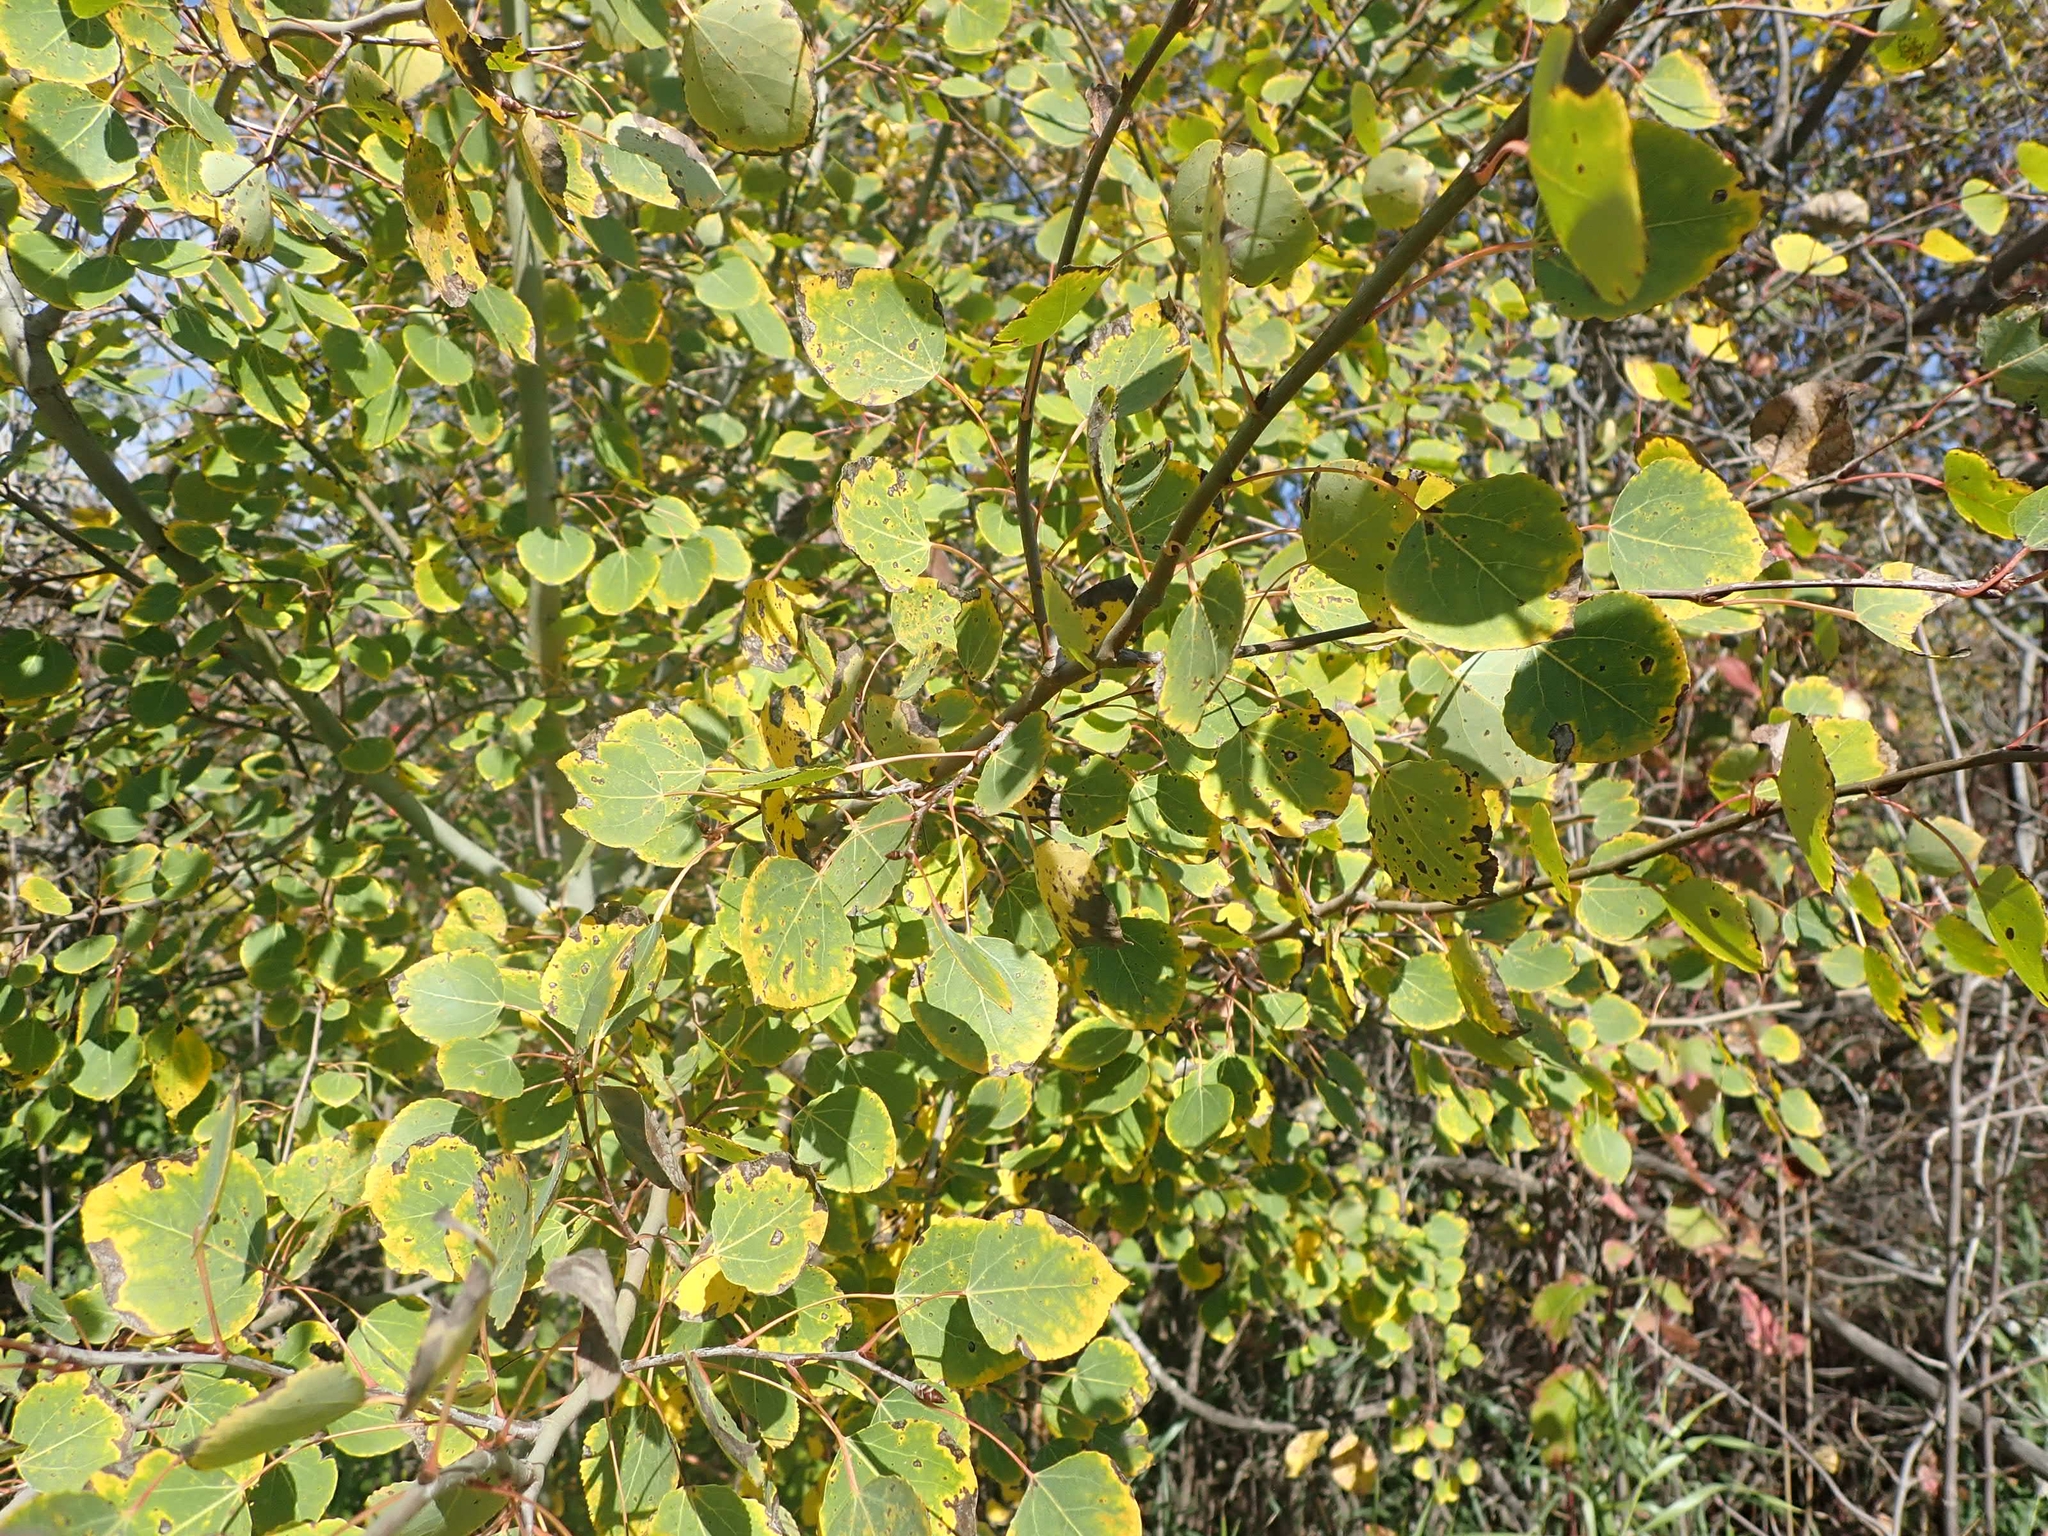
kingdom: Plantae
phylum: Tracheophyta
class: Magnoliopsida
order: Malpighiales
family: Salicaceae
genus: Populus
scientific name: Populus tremuloides
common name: Quaking aspen
